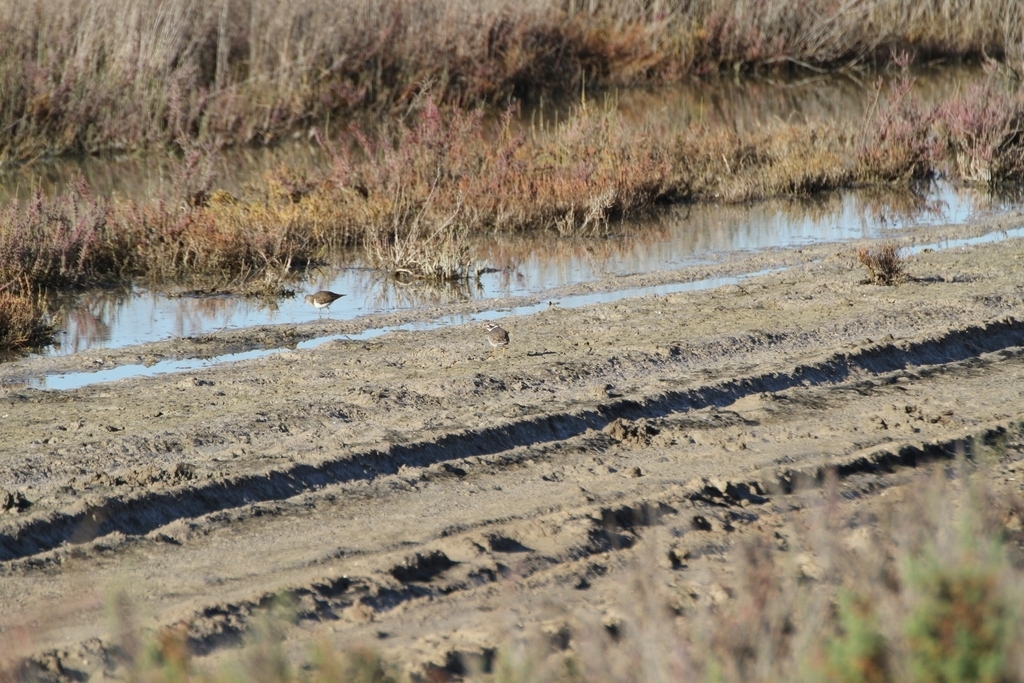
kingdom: Animalia
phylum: Chordata
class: Aves
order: Charadriiformes
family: Charadriidae
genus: Charadrius
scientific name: Charadrius hiaticula
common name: Common ringed plover
